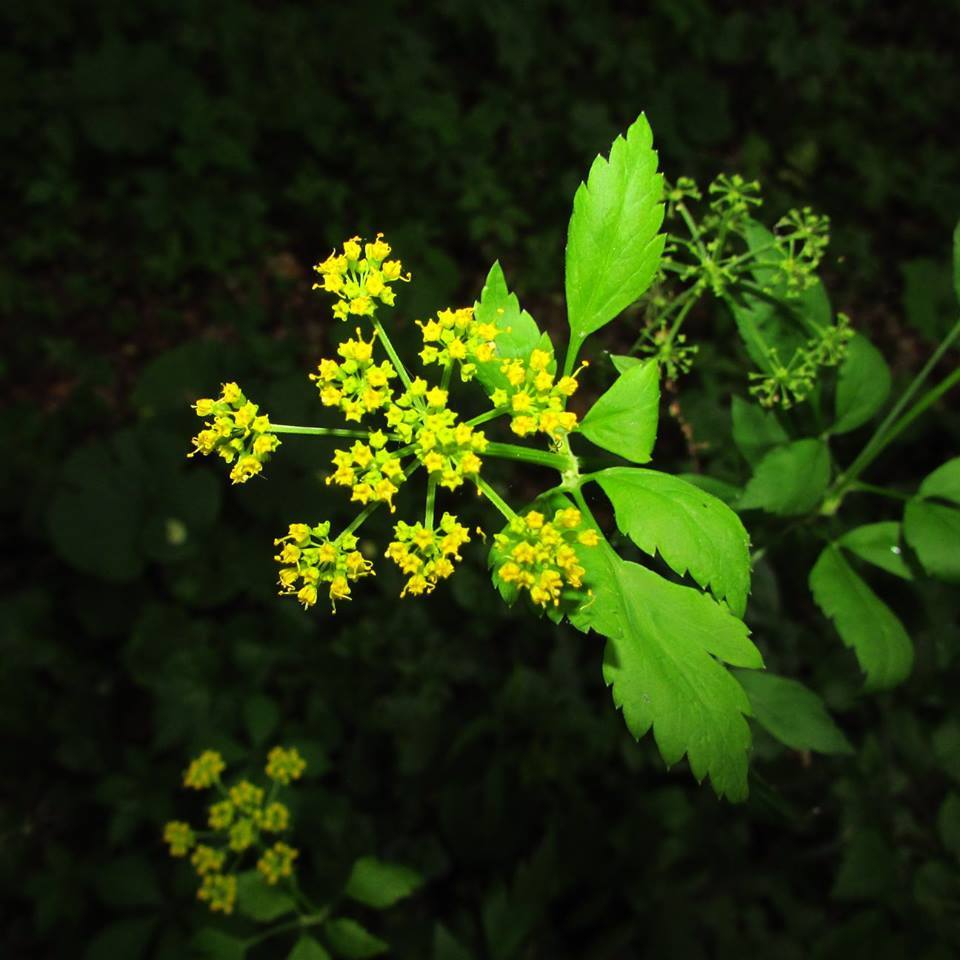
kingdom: Plantae
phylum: Tracheophyta
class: Magnoliopsida
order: Apiales
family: Apiaceae
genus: Pastinaca
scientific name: Pastinaca sativa
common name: Wild parsnip
